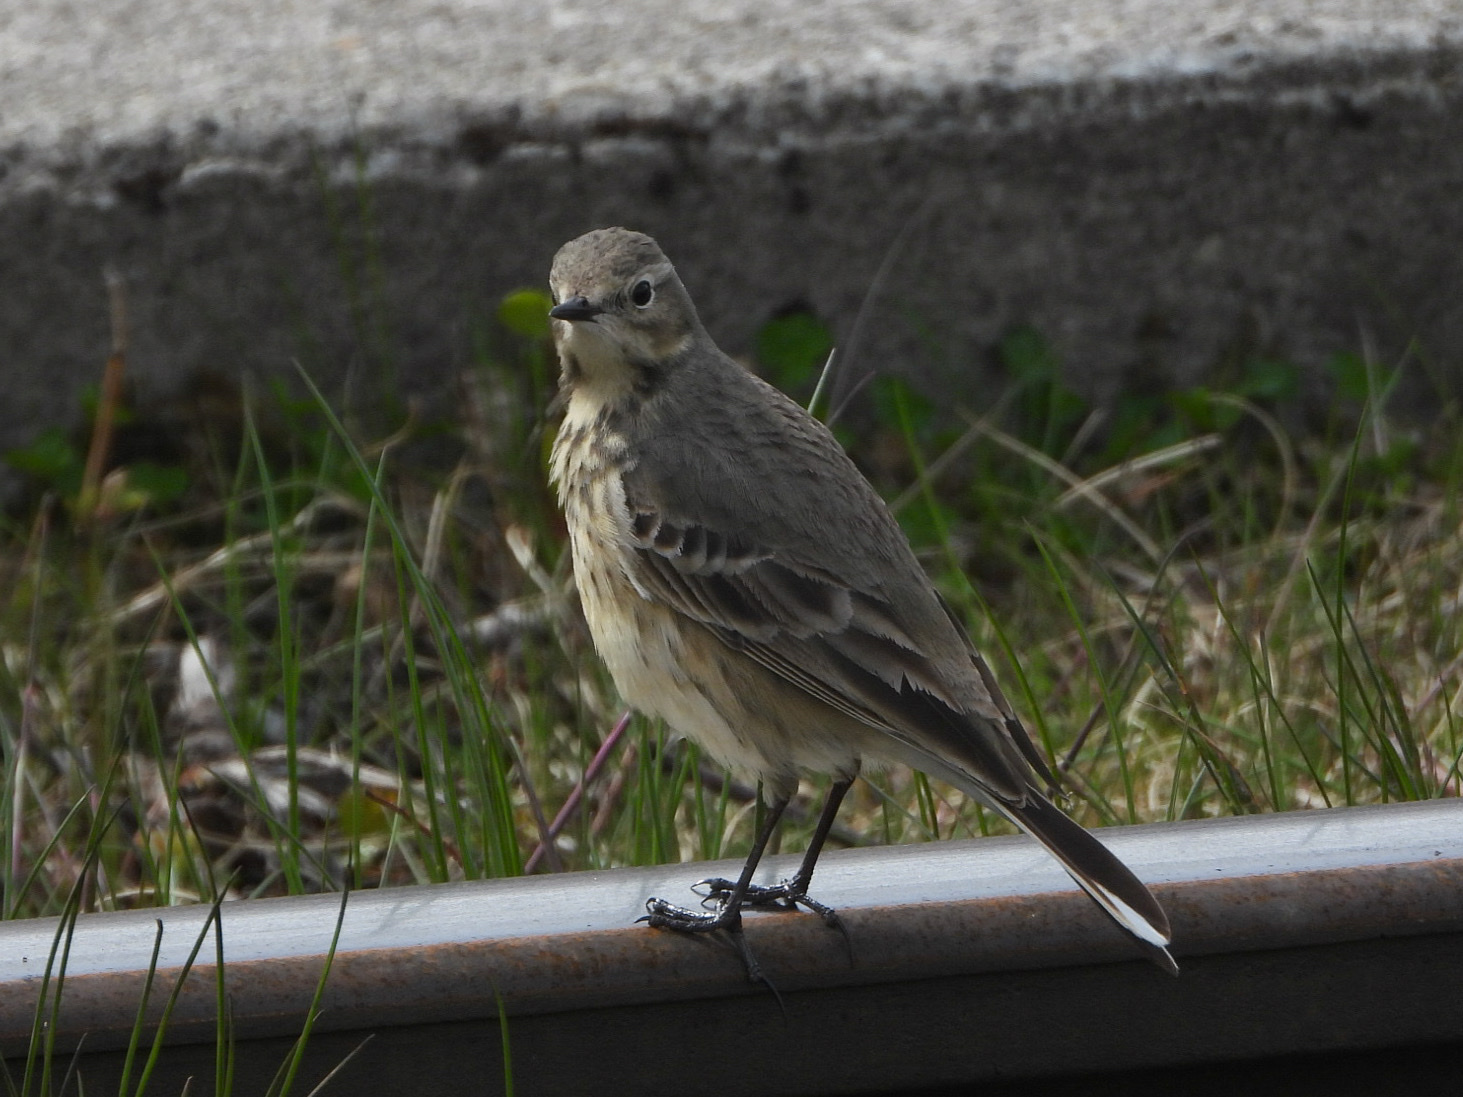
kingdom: Animalia
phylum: Chordata
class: Aves
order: Passeriformes
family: Motacillidae
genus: Anthus
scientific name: Anthus rubescens
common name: Buff-bellied pipit
